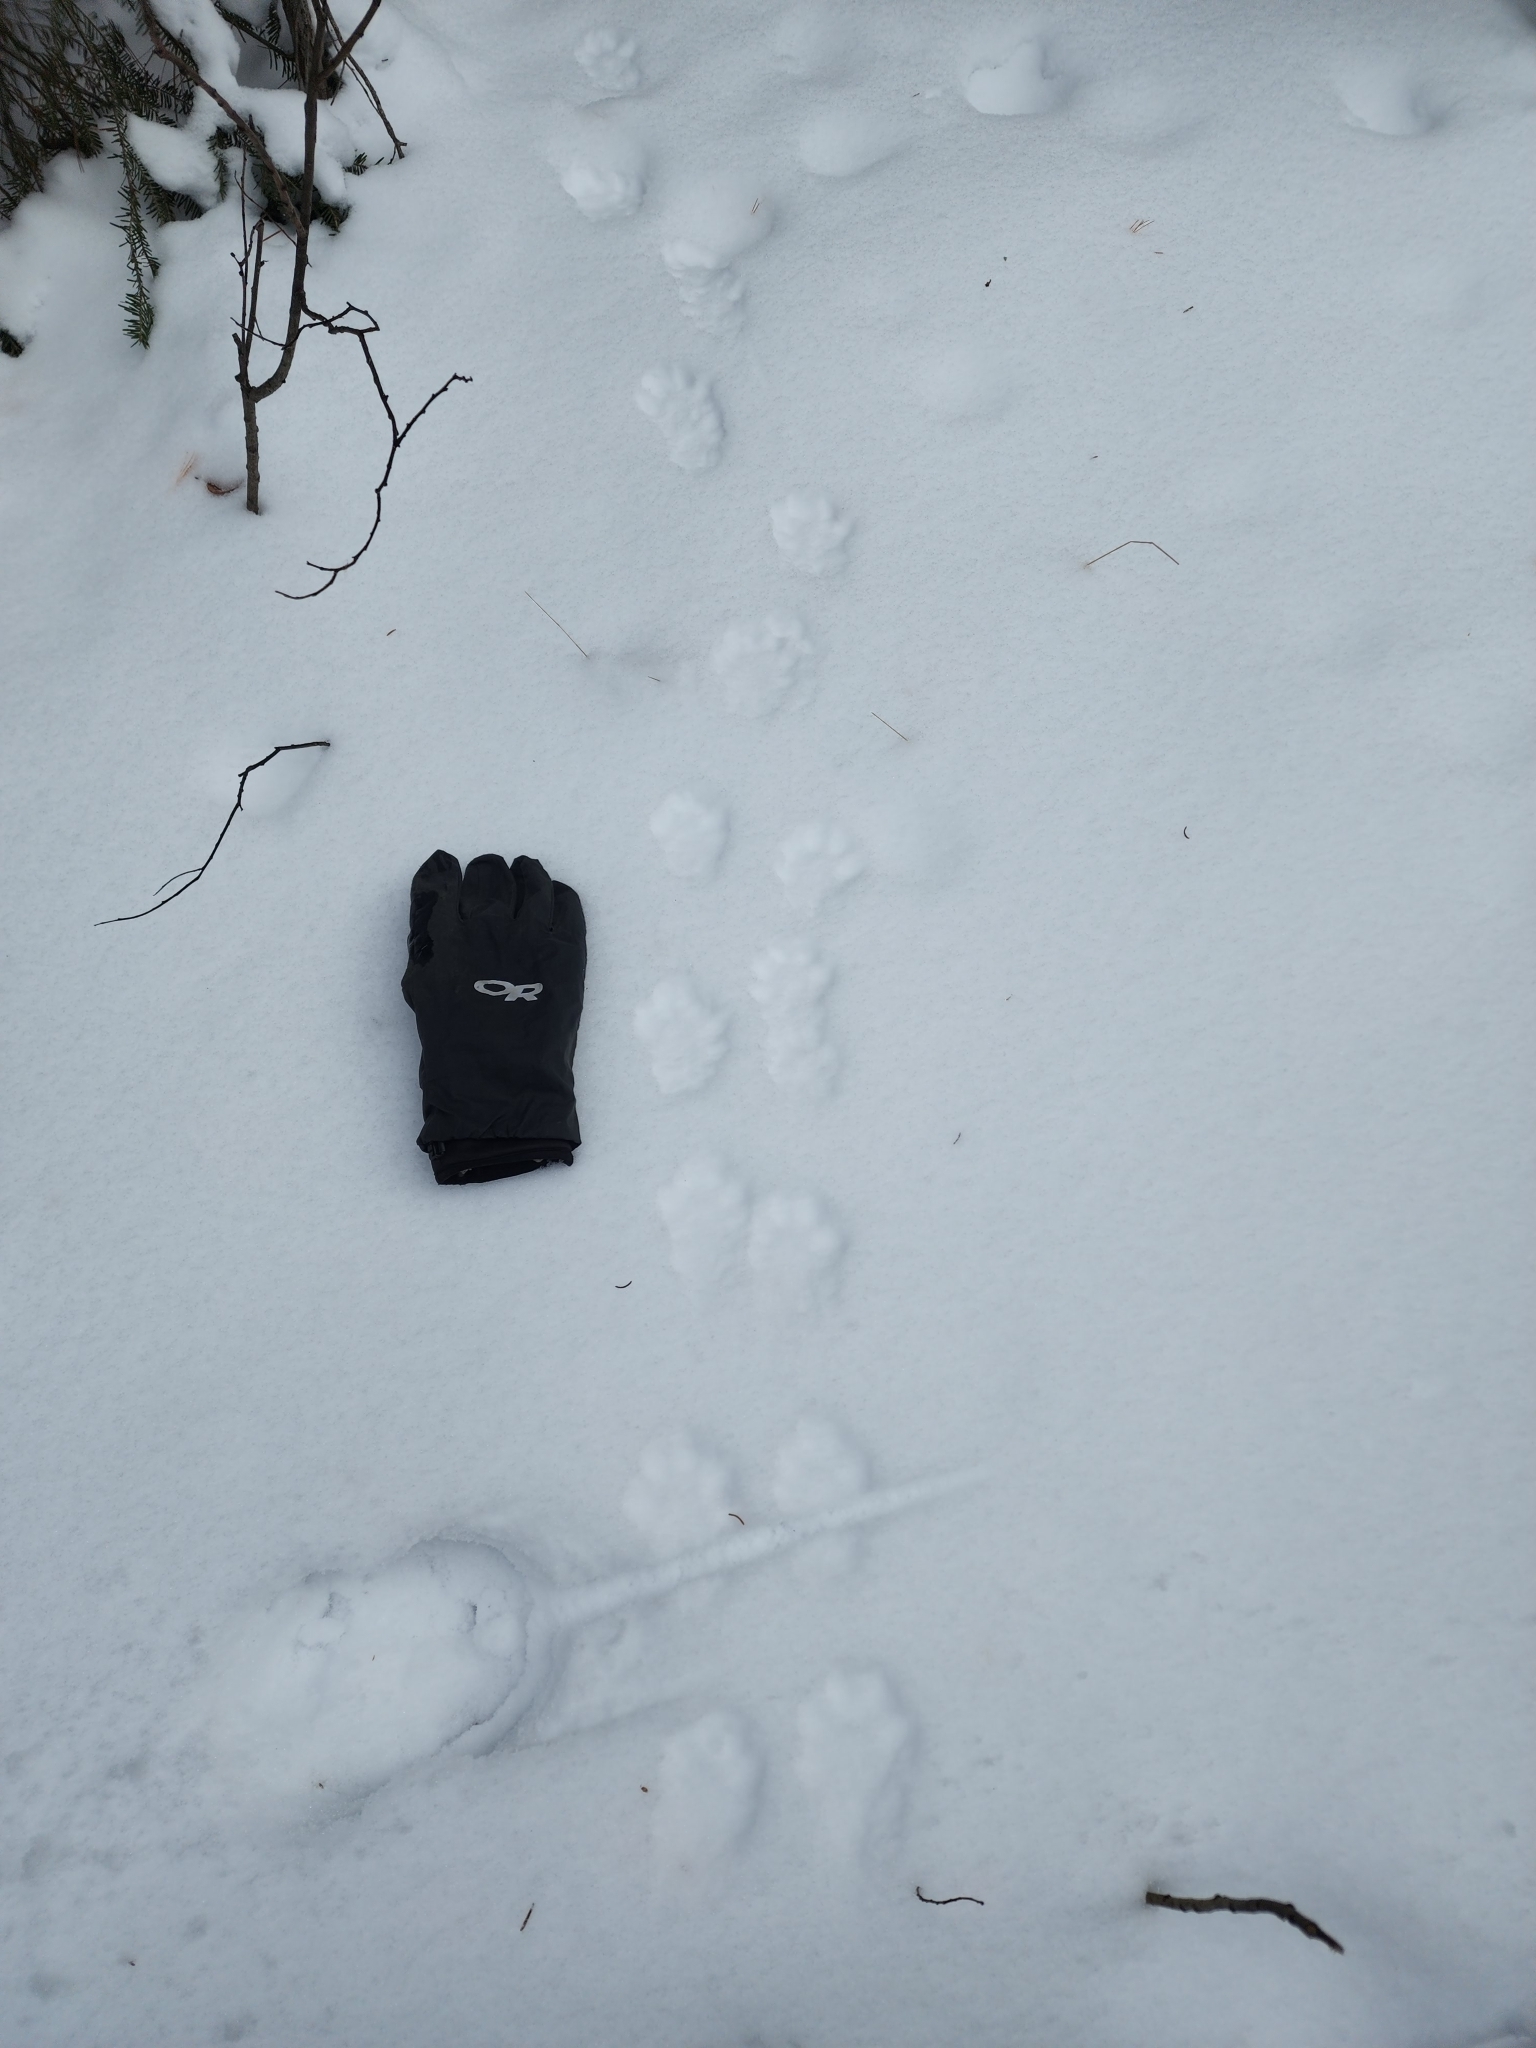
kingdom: Animalia
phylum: Chordata
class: Mammalia
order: Carnivora
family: Mustelidae
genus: Martes
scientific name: Martes americana
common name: American marten
